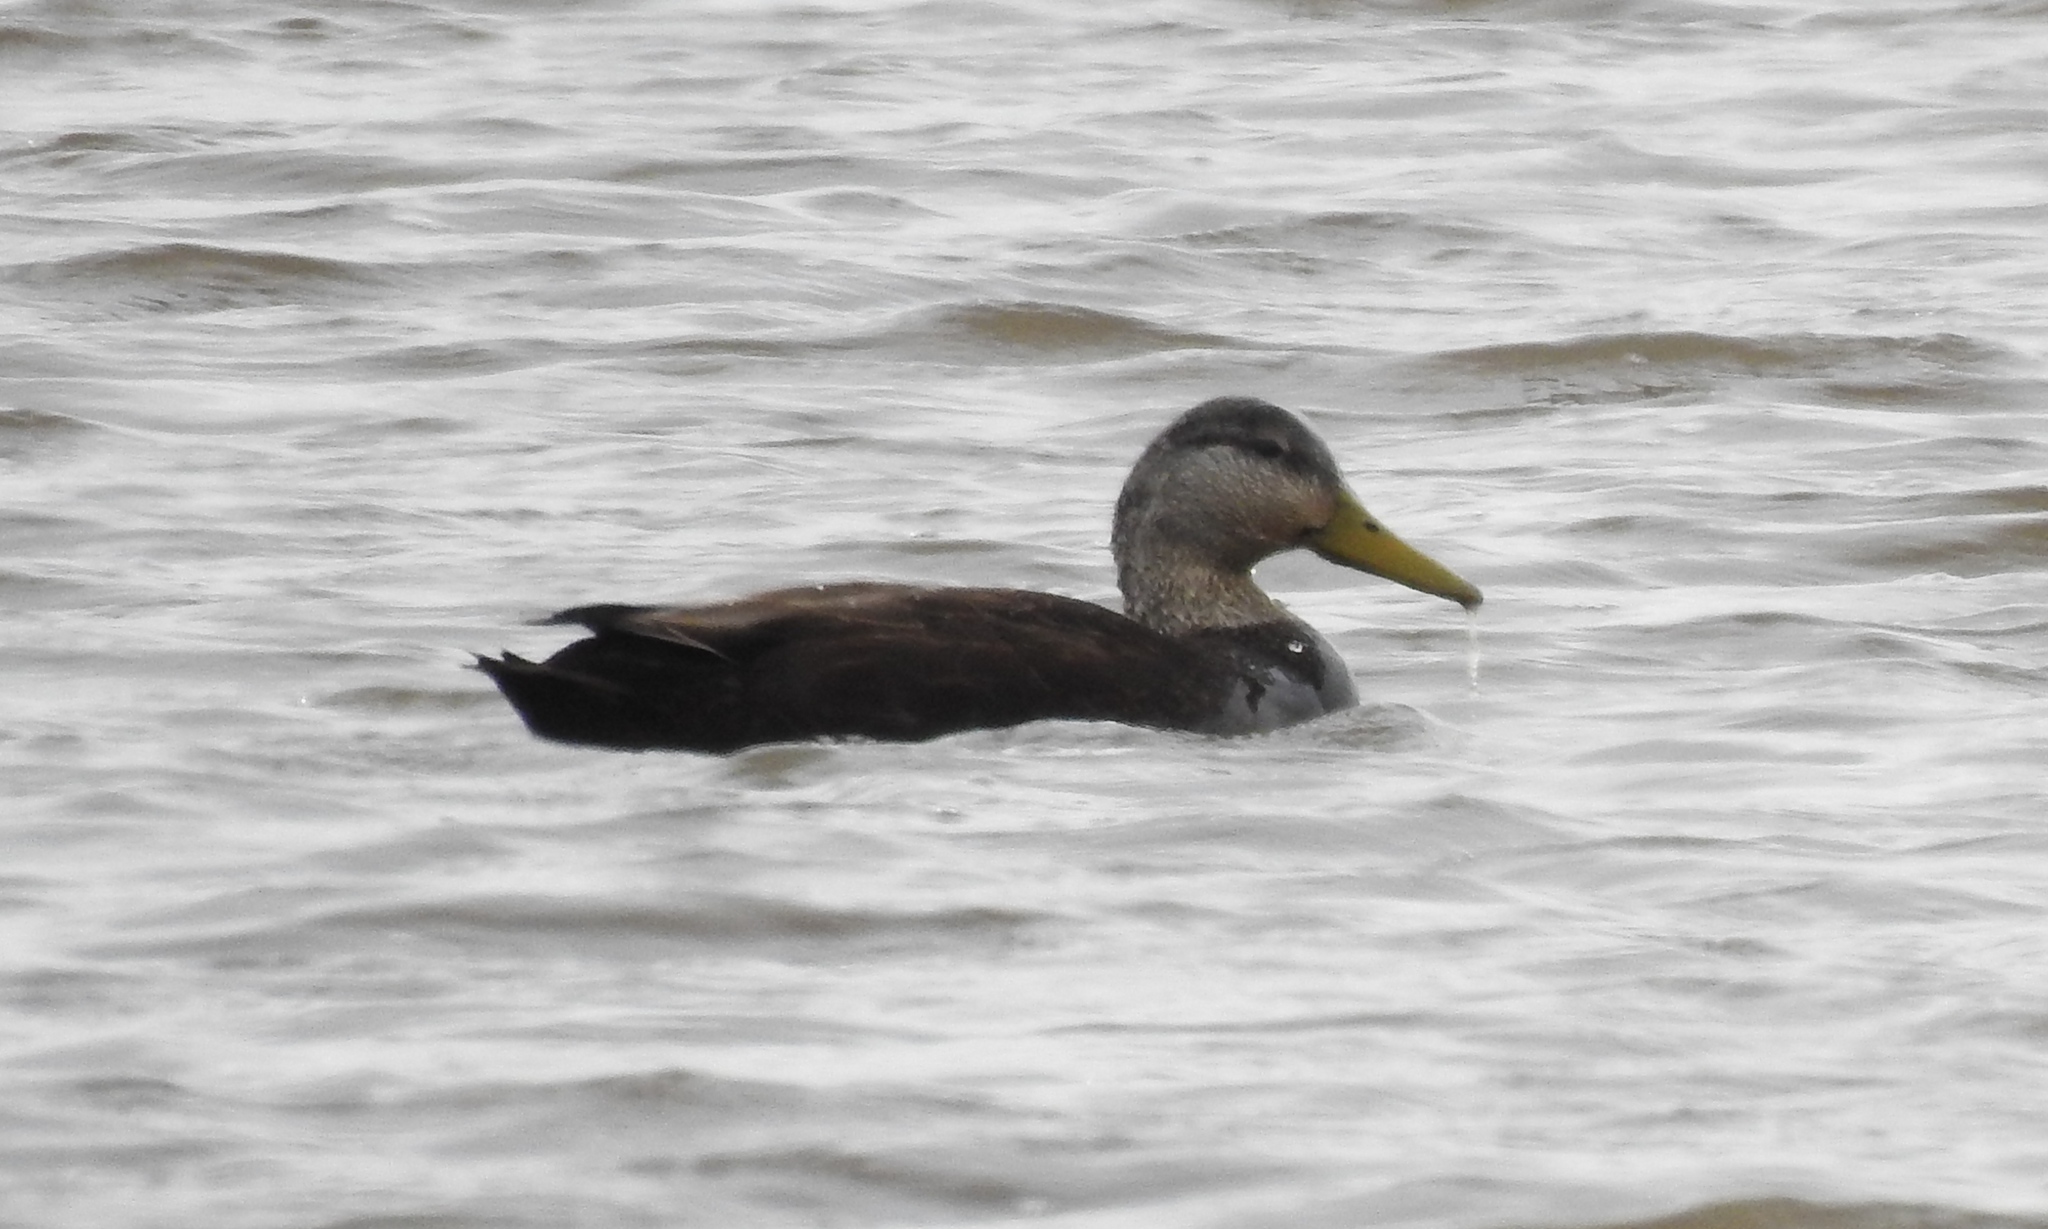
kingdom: Animalia
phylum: Chordata
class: Aves
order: Anseriformes
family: Anatidae
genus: Anas
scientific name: Anas rubripes
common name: American black duck
